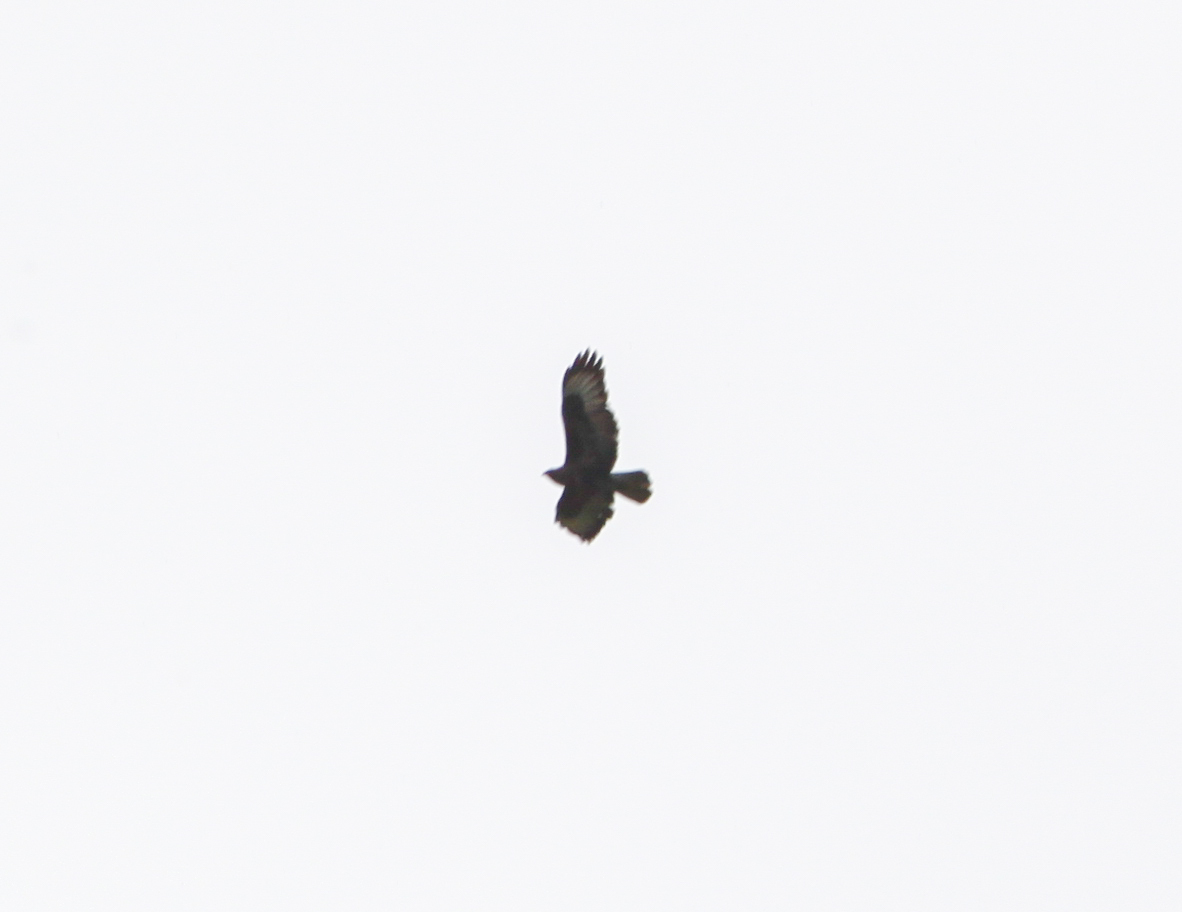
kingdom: Animalia
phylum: Chordata
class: Aves
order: Accipitriformes
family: Accipitridae
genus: Buteo
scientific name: Buteo buteo
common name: Common buzzard
